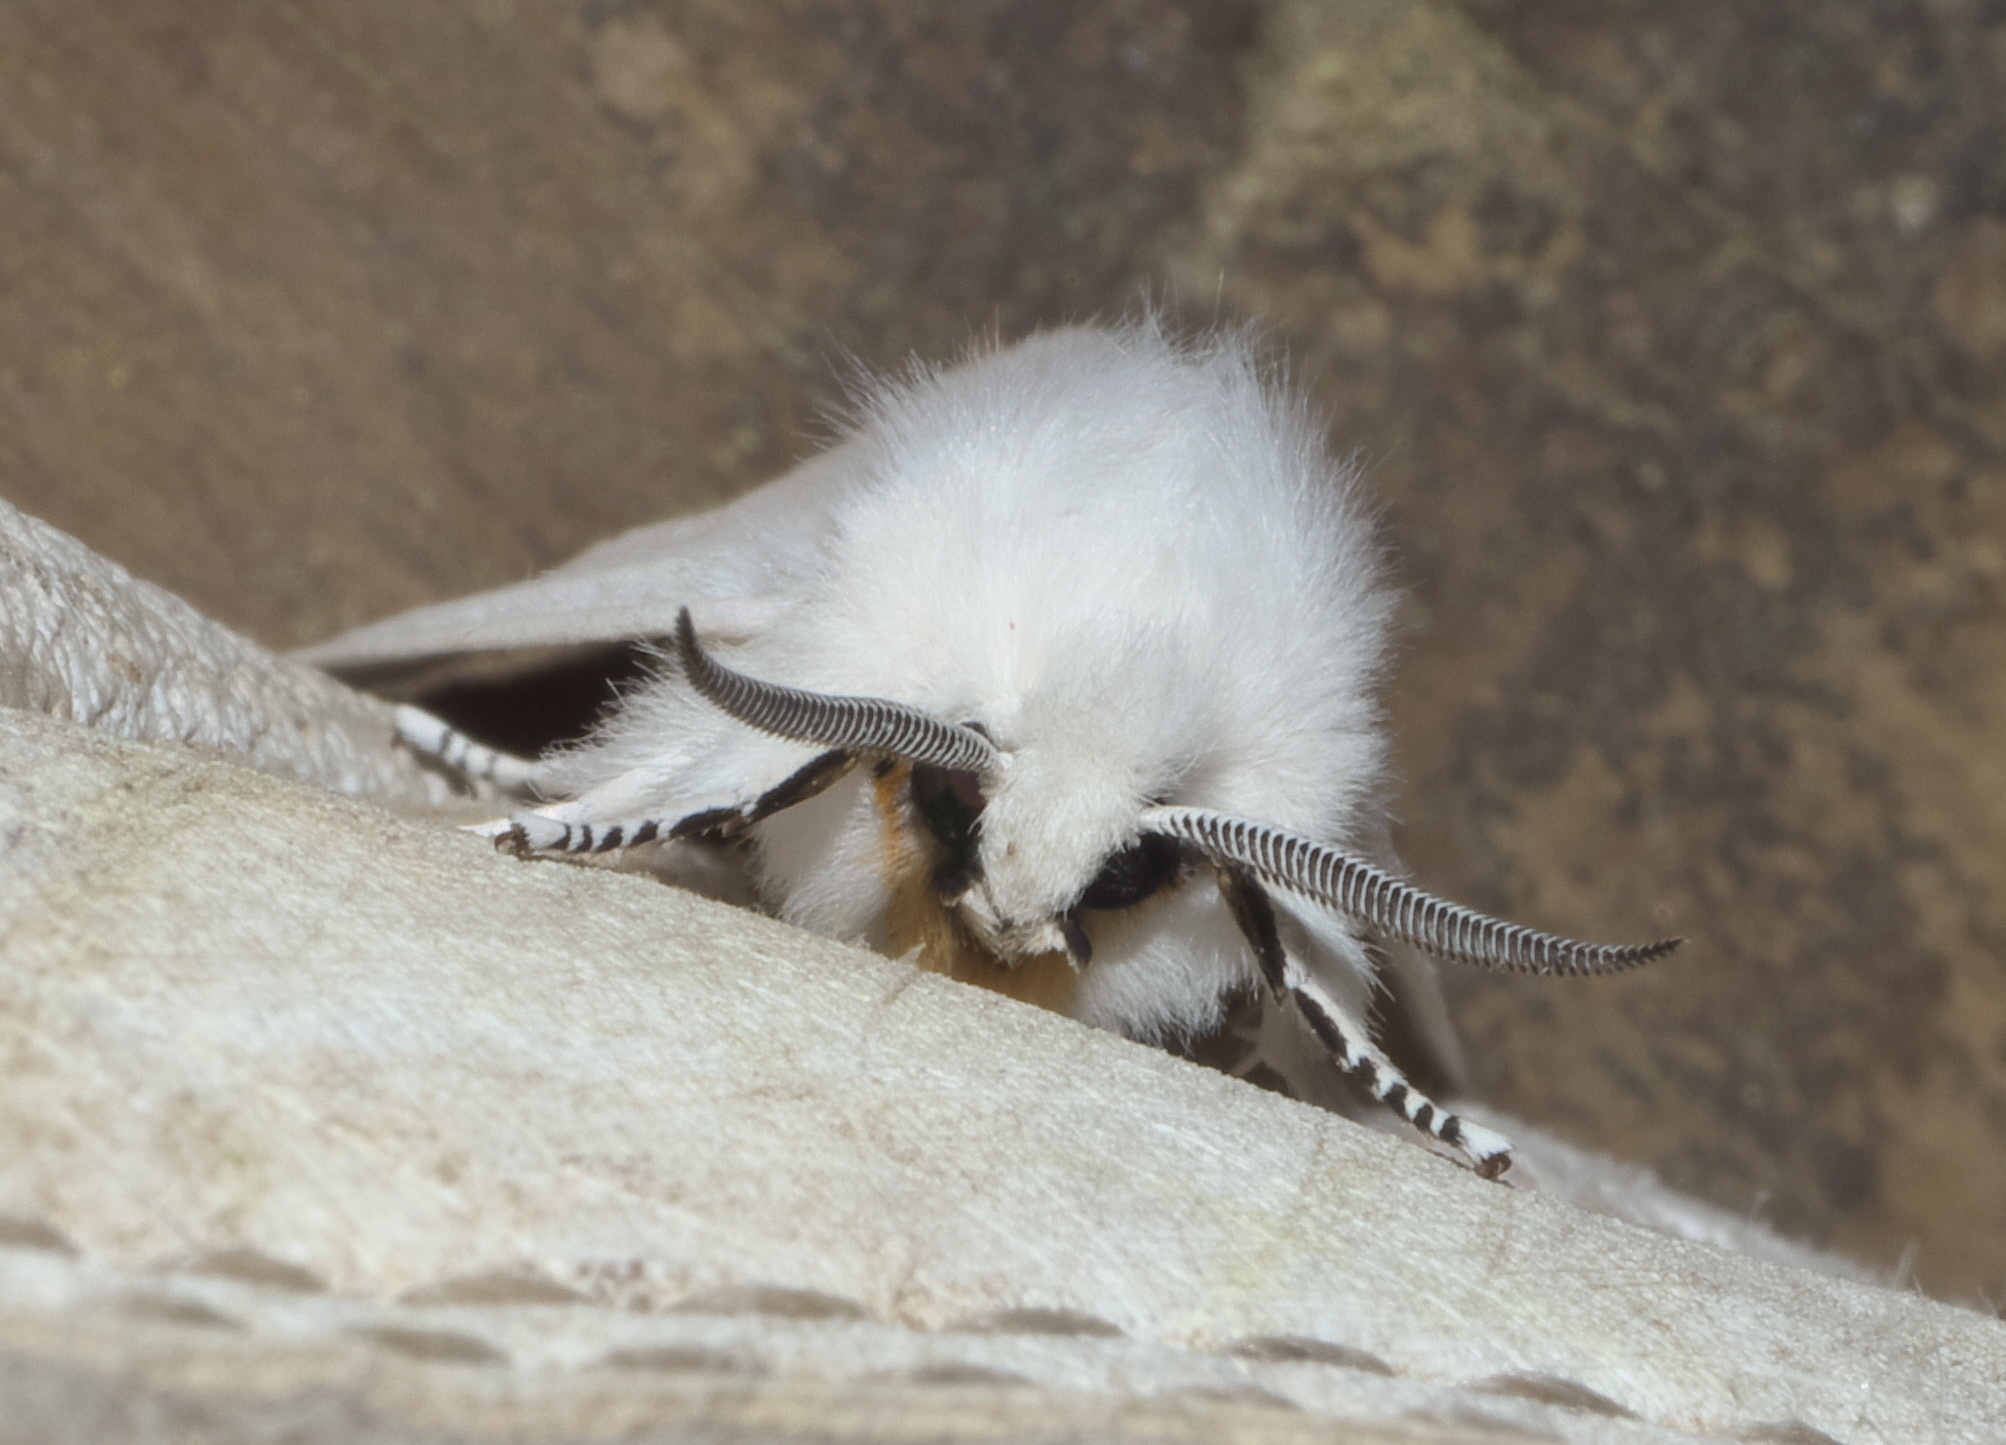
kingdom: Animalia
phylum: Arthropoda
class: Insecta
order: Lepidoptera
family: Erebidae
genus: Spilosoma
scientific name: Spilosoma virginica
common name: Virginia tiger moth
